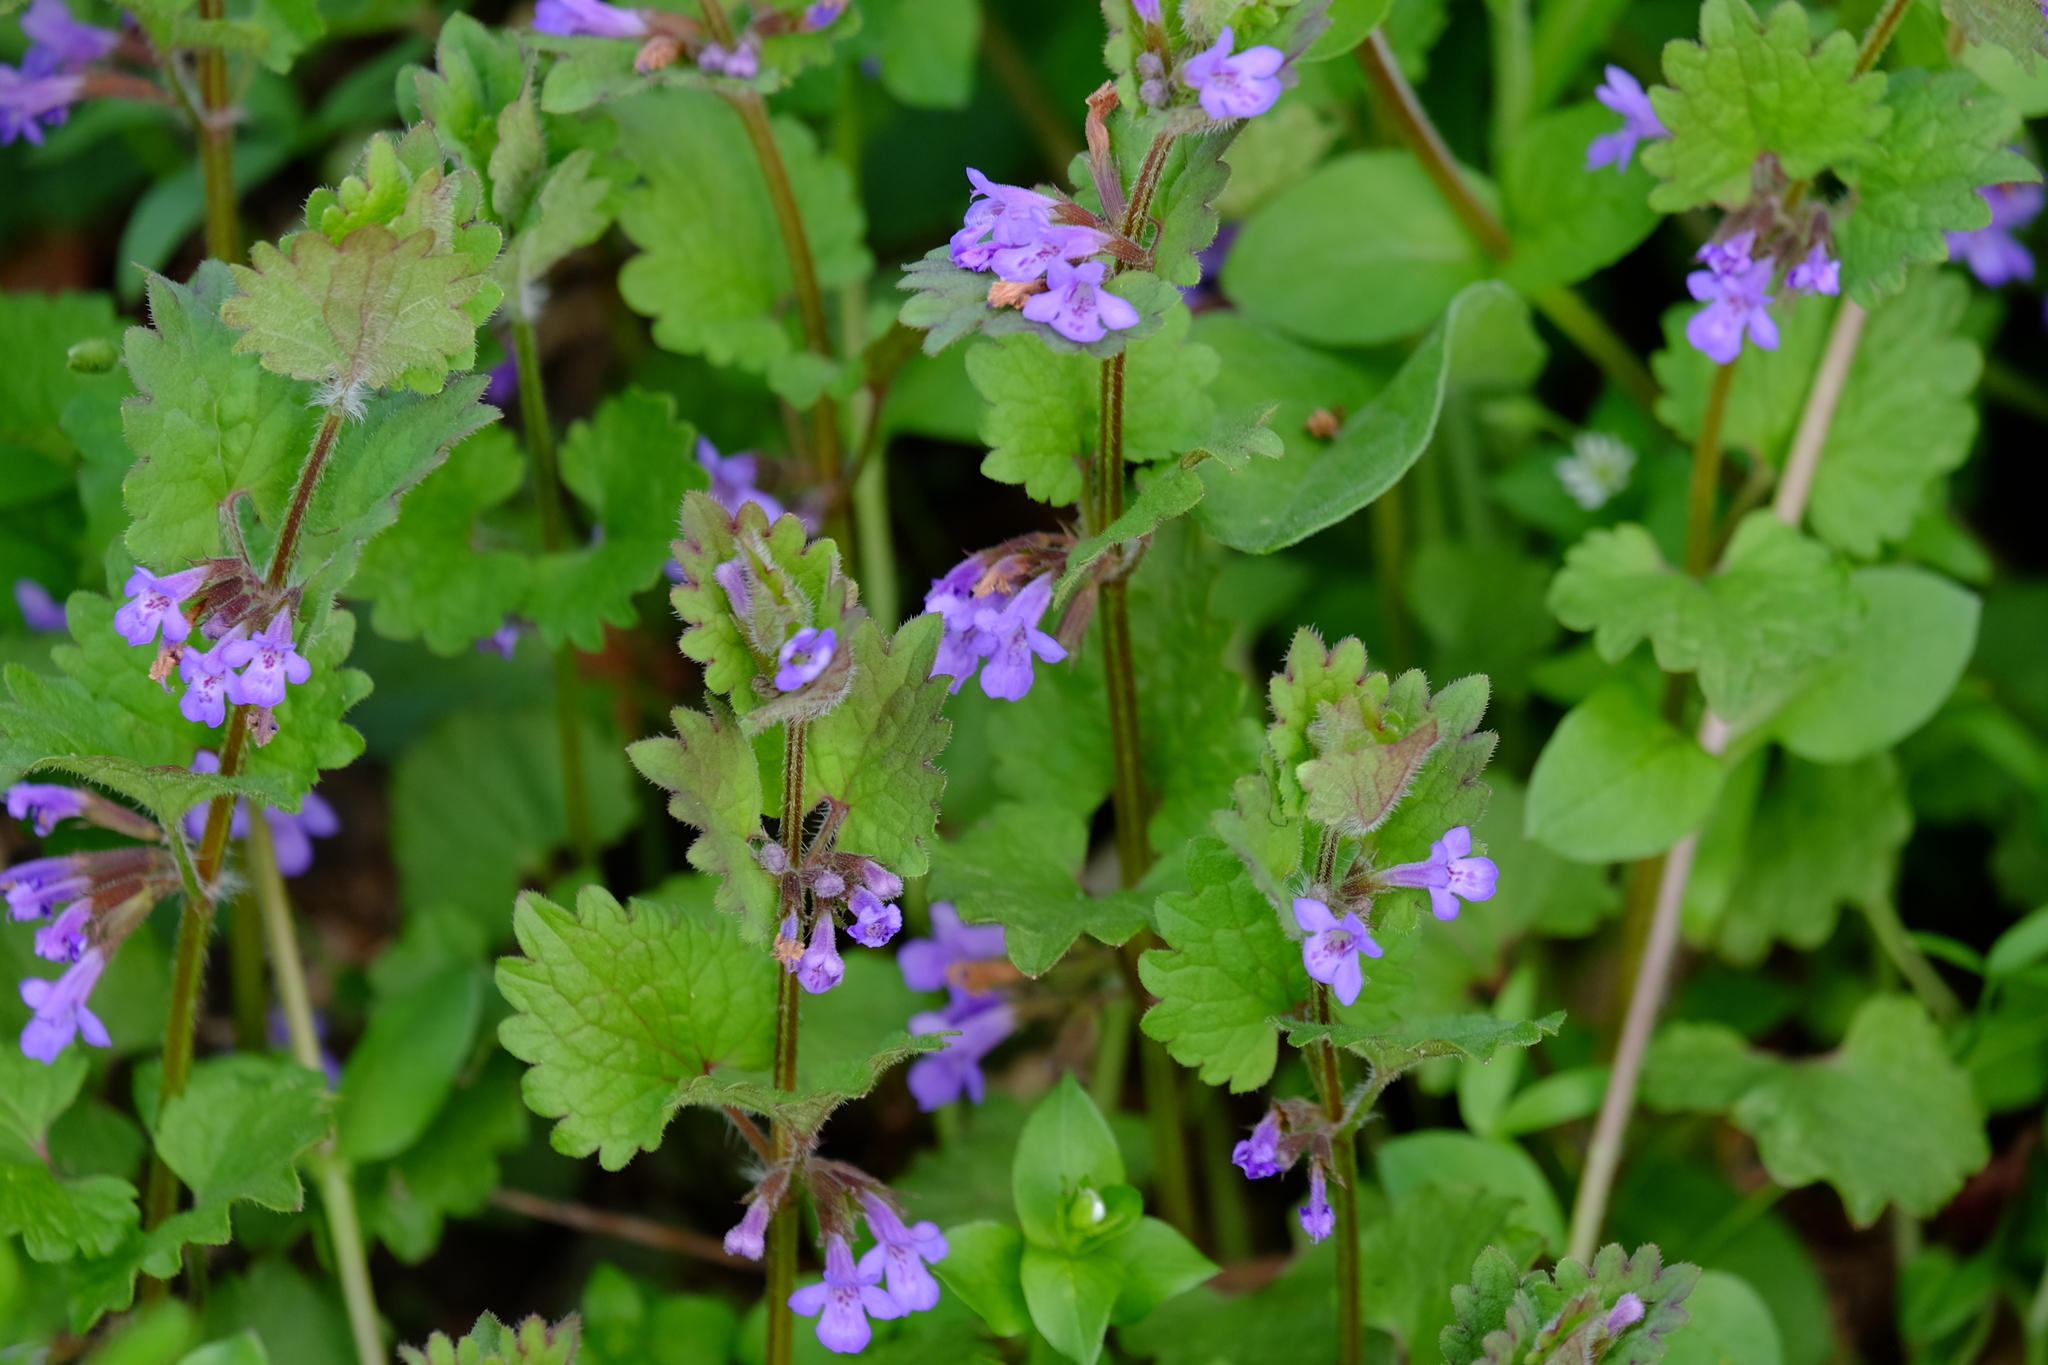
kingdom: Plantae
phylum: Tracheophyta
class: Magnoliopsida
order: Lamiales
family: Lamiaceae
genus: Glechoma
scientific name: Glechoma hederacea
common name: Ground ivy
